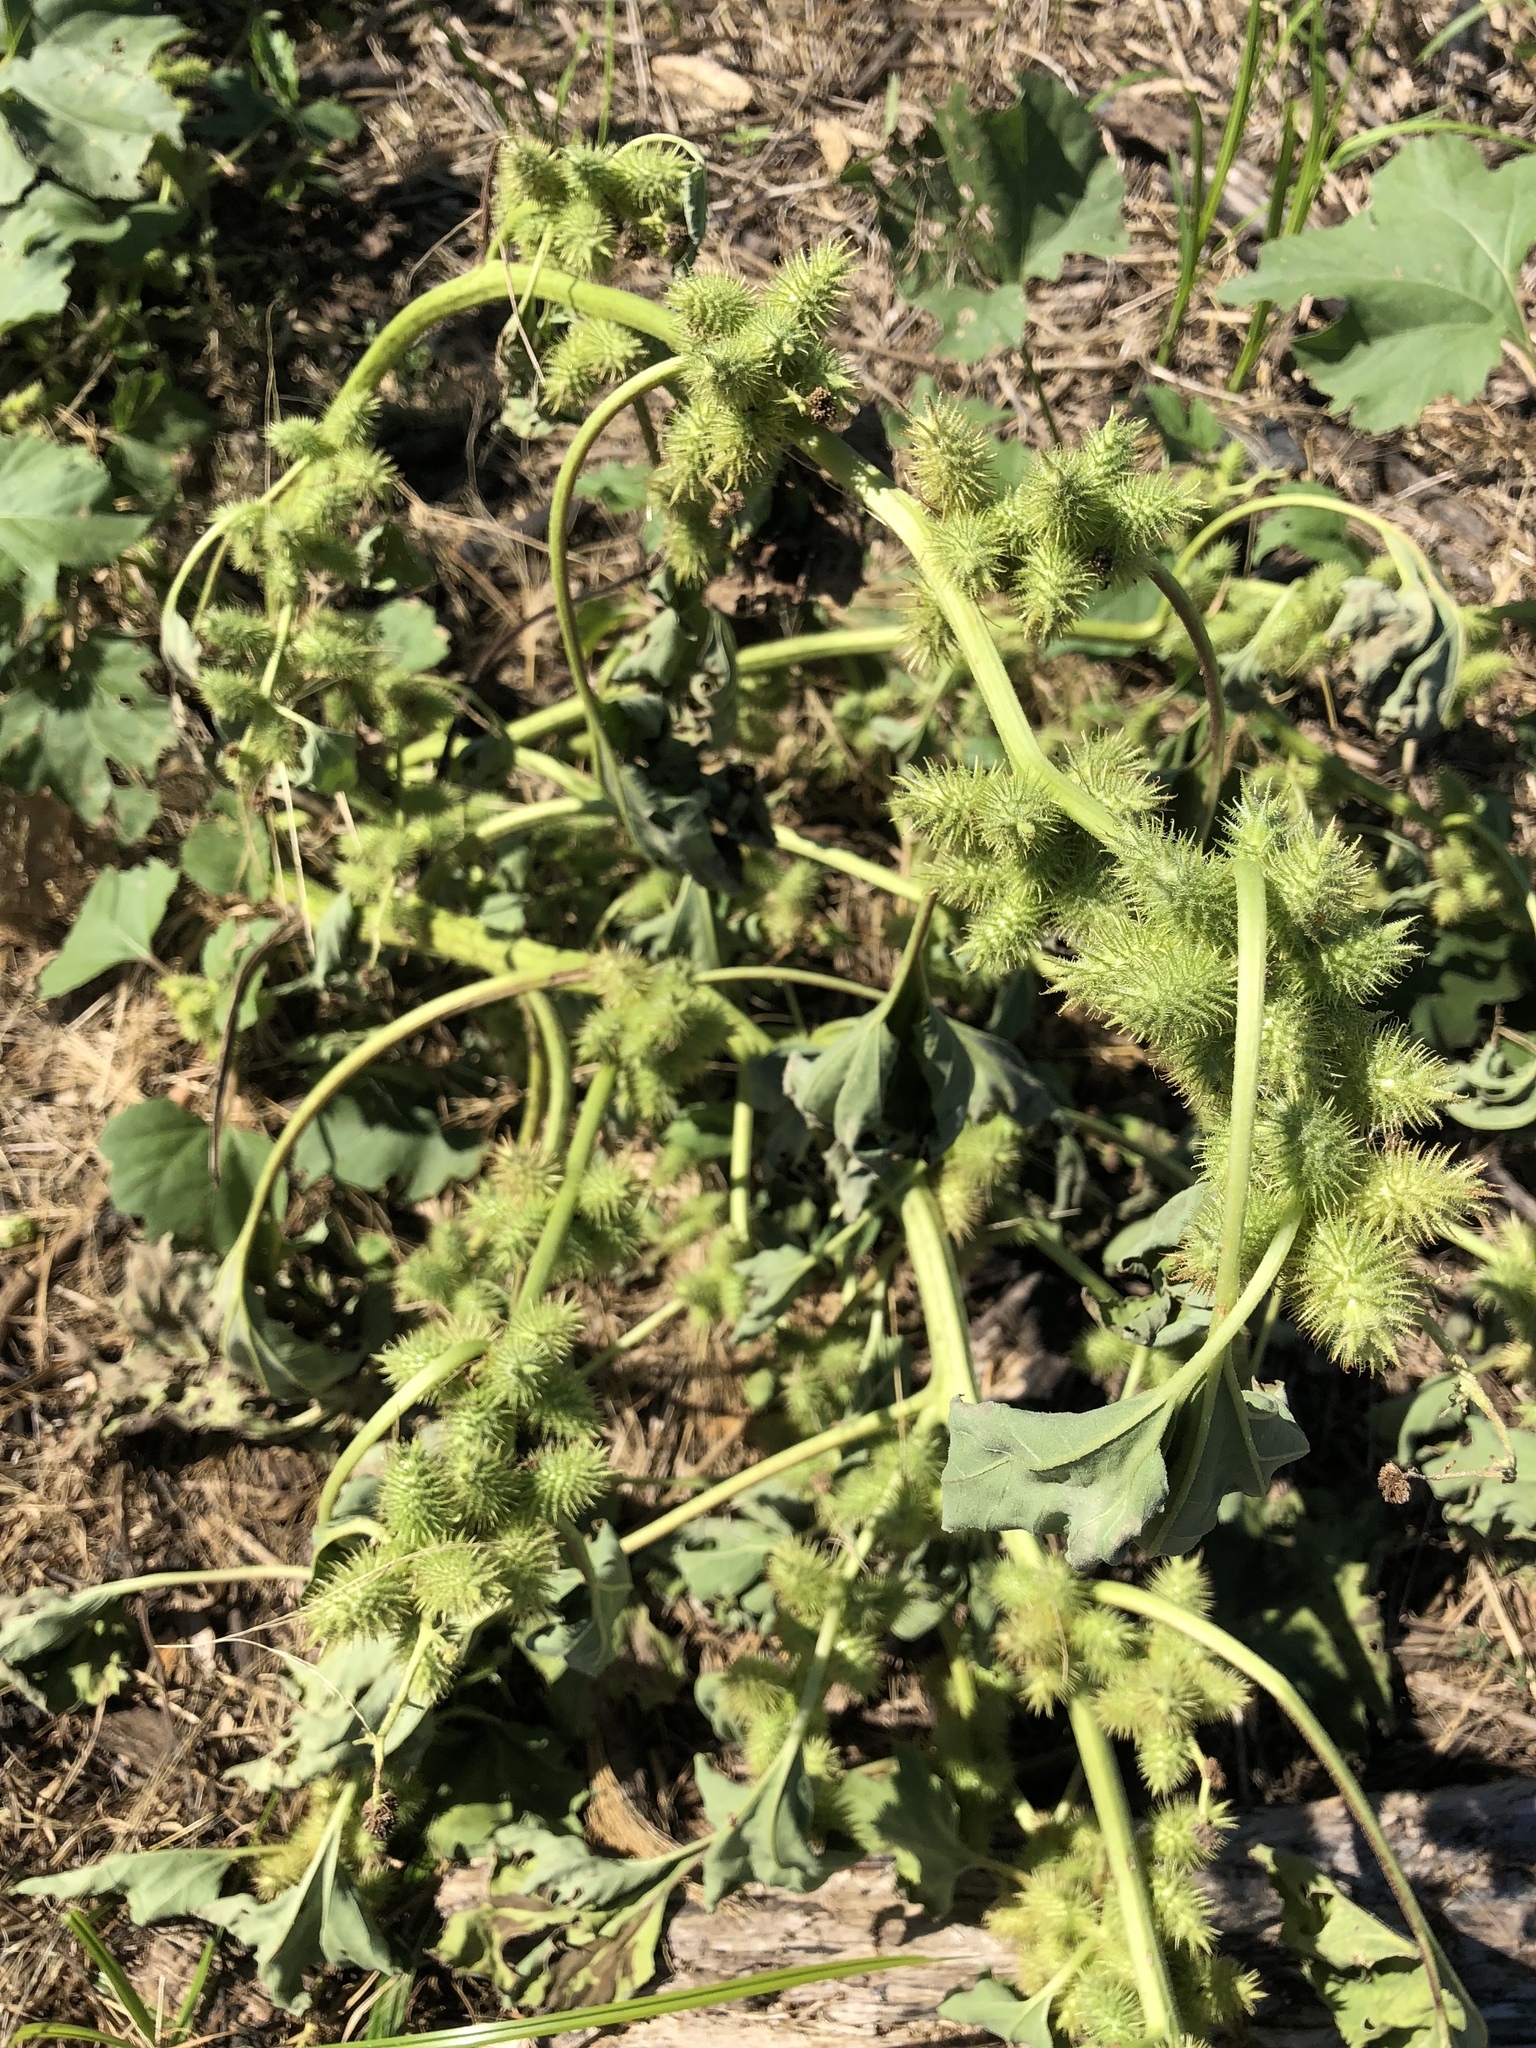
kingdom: Plantae
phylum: Tracheophyta
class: Magnoliopsida
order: Asterales
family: Asteraceae
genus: Xanthium
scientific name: Xanthium strumarium
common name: Rough cocklebur
